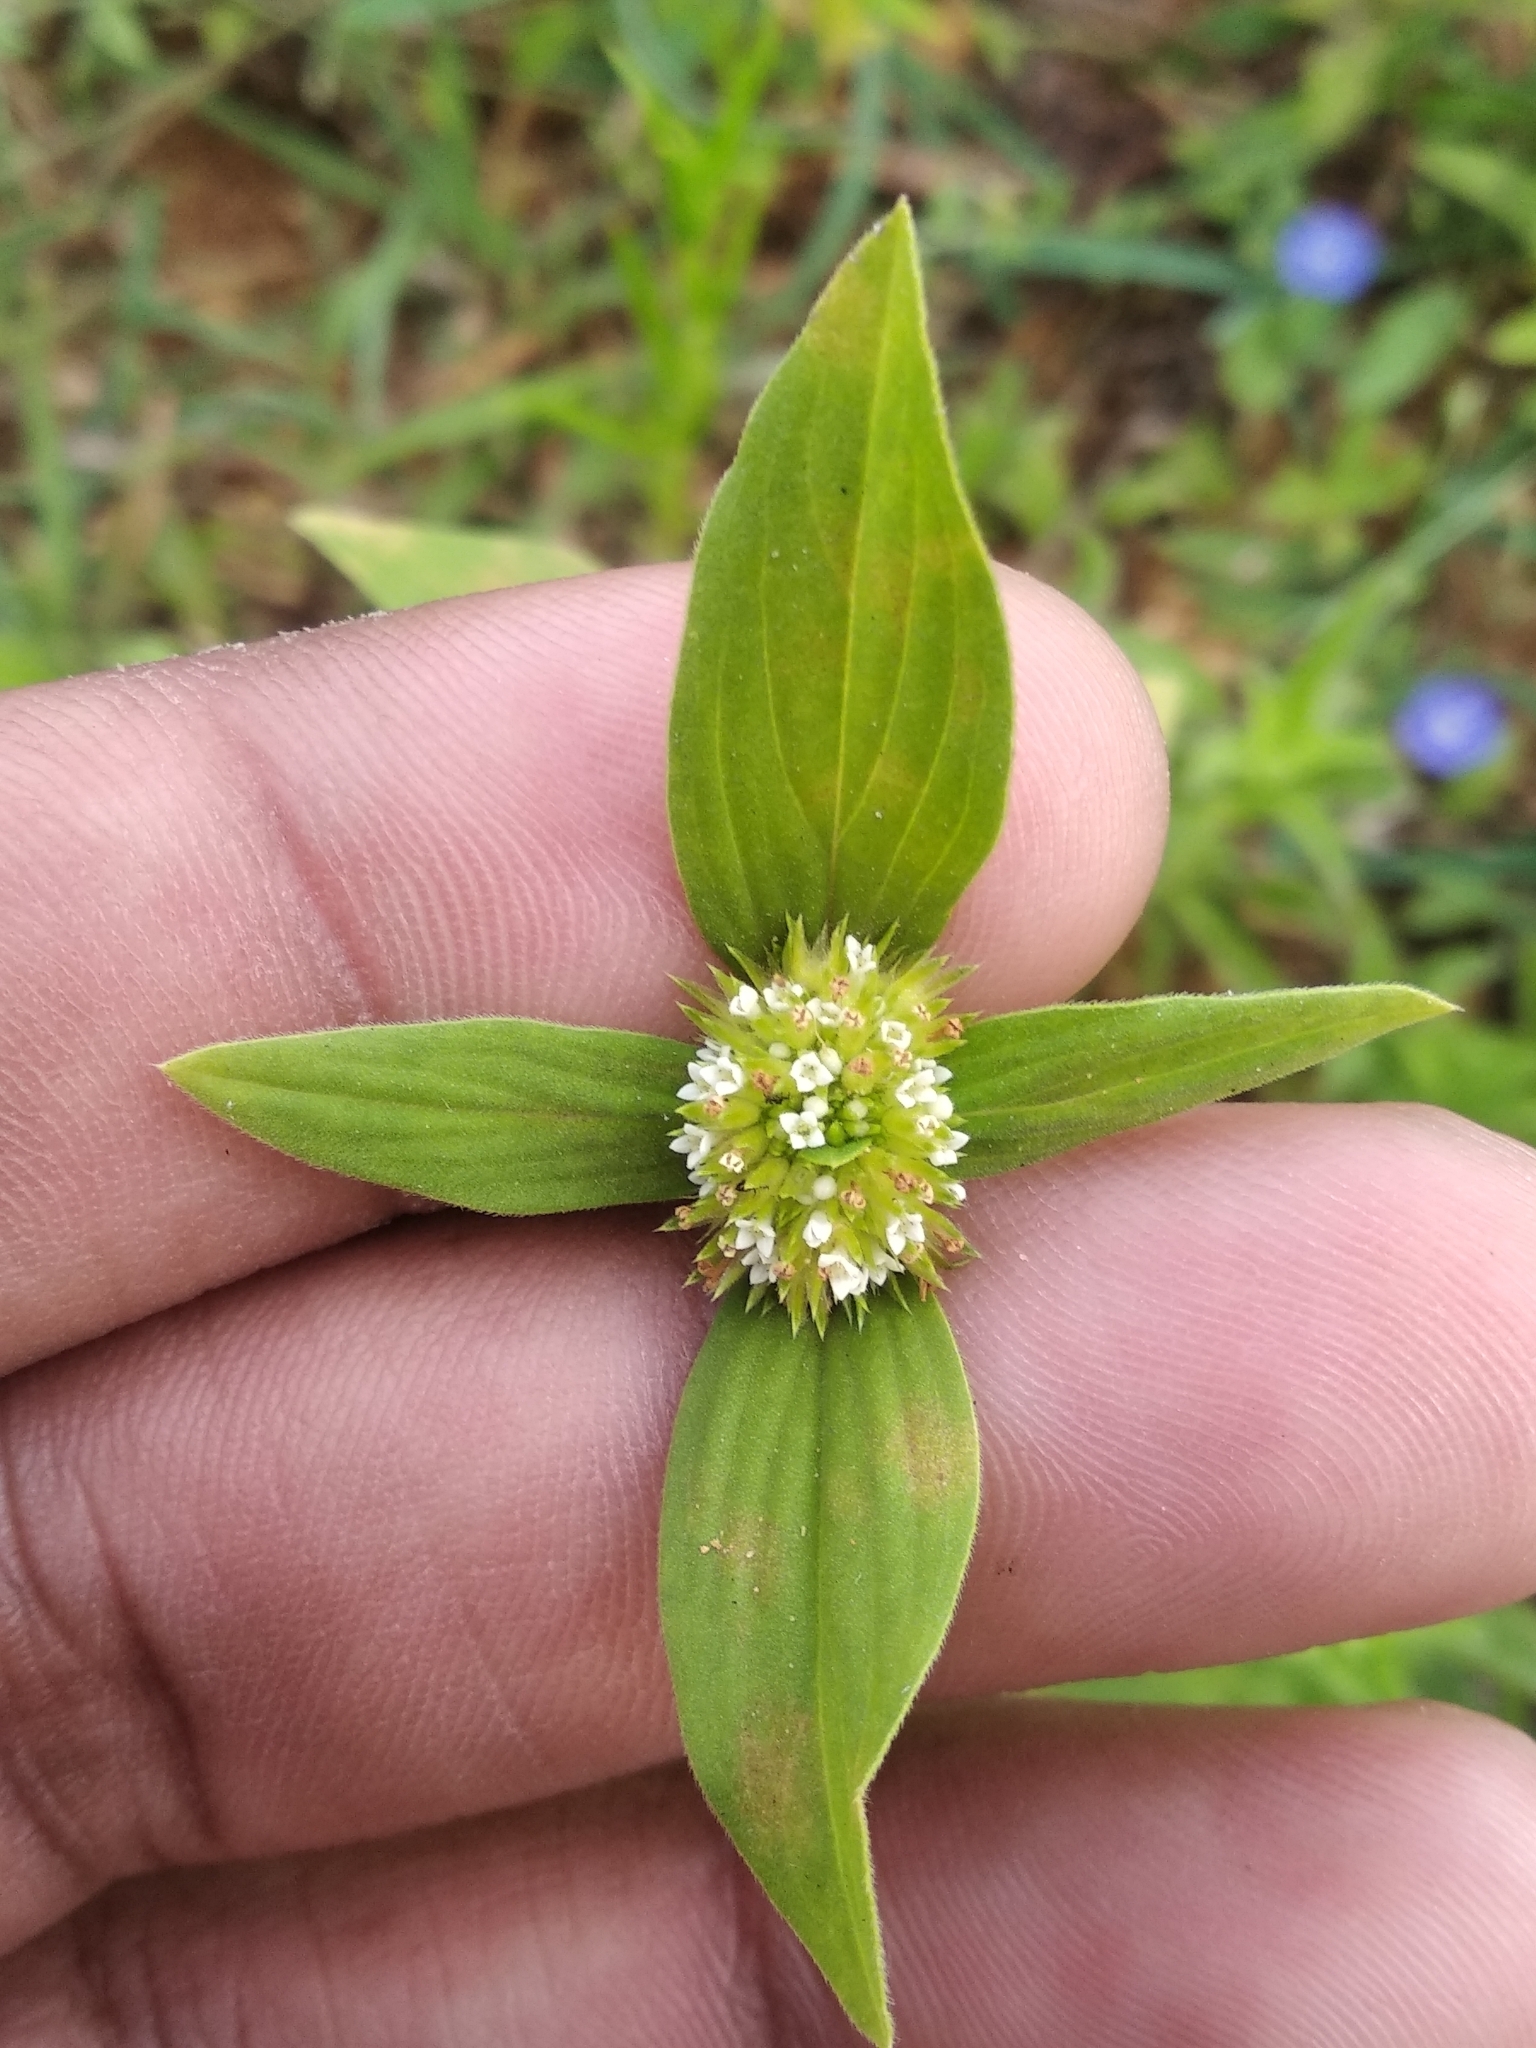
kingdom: Plantae
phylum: Tracheophyta
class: Magnoliopsida
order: Gentianales
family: Rubiaceae
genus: Mitracarpus
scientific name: Mitracarpus hirtus
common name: Tropical girdlepod
